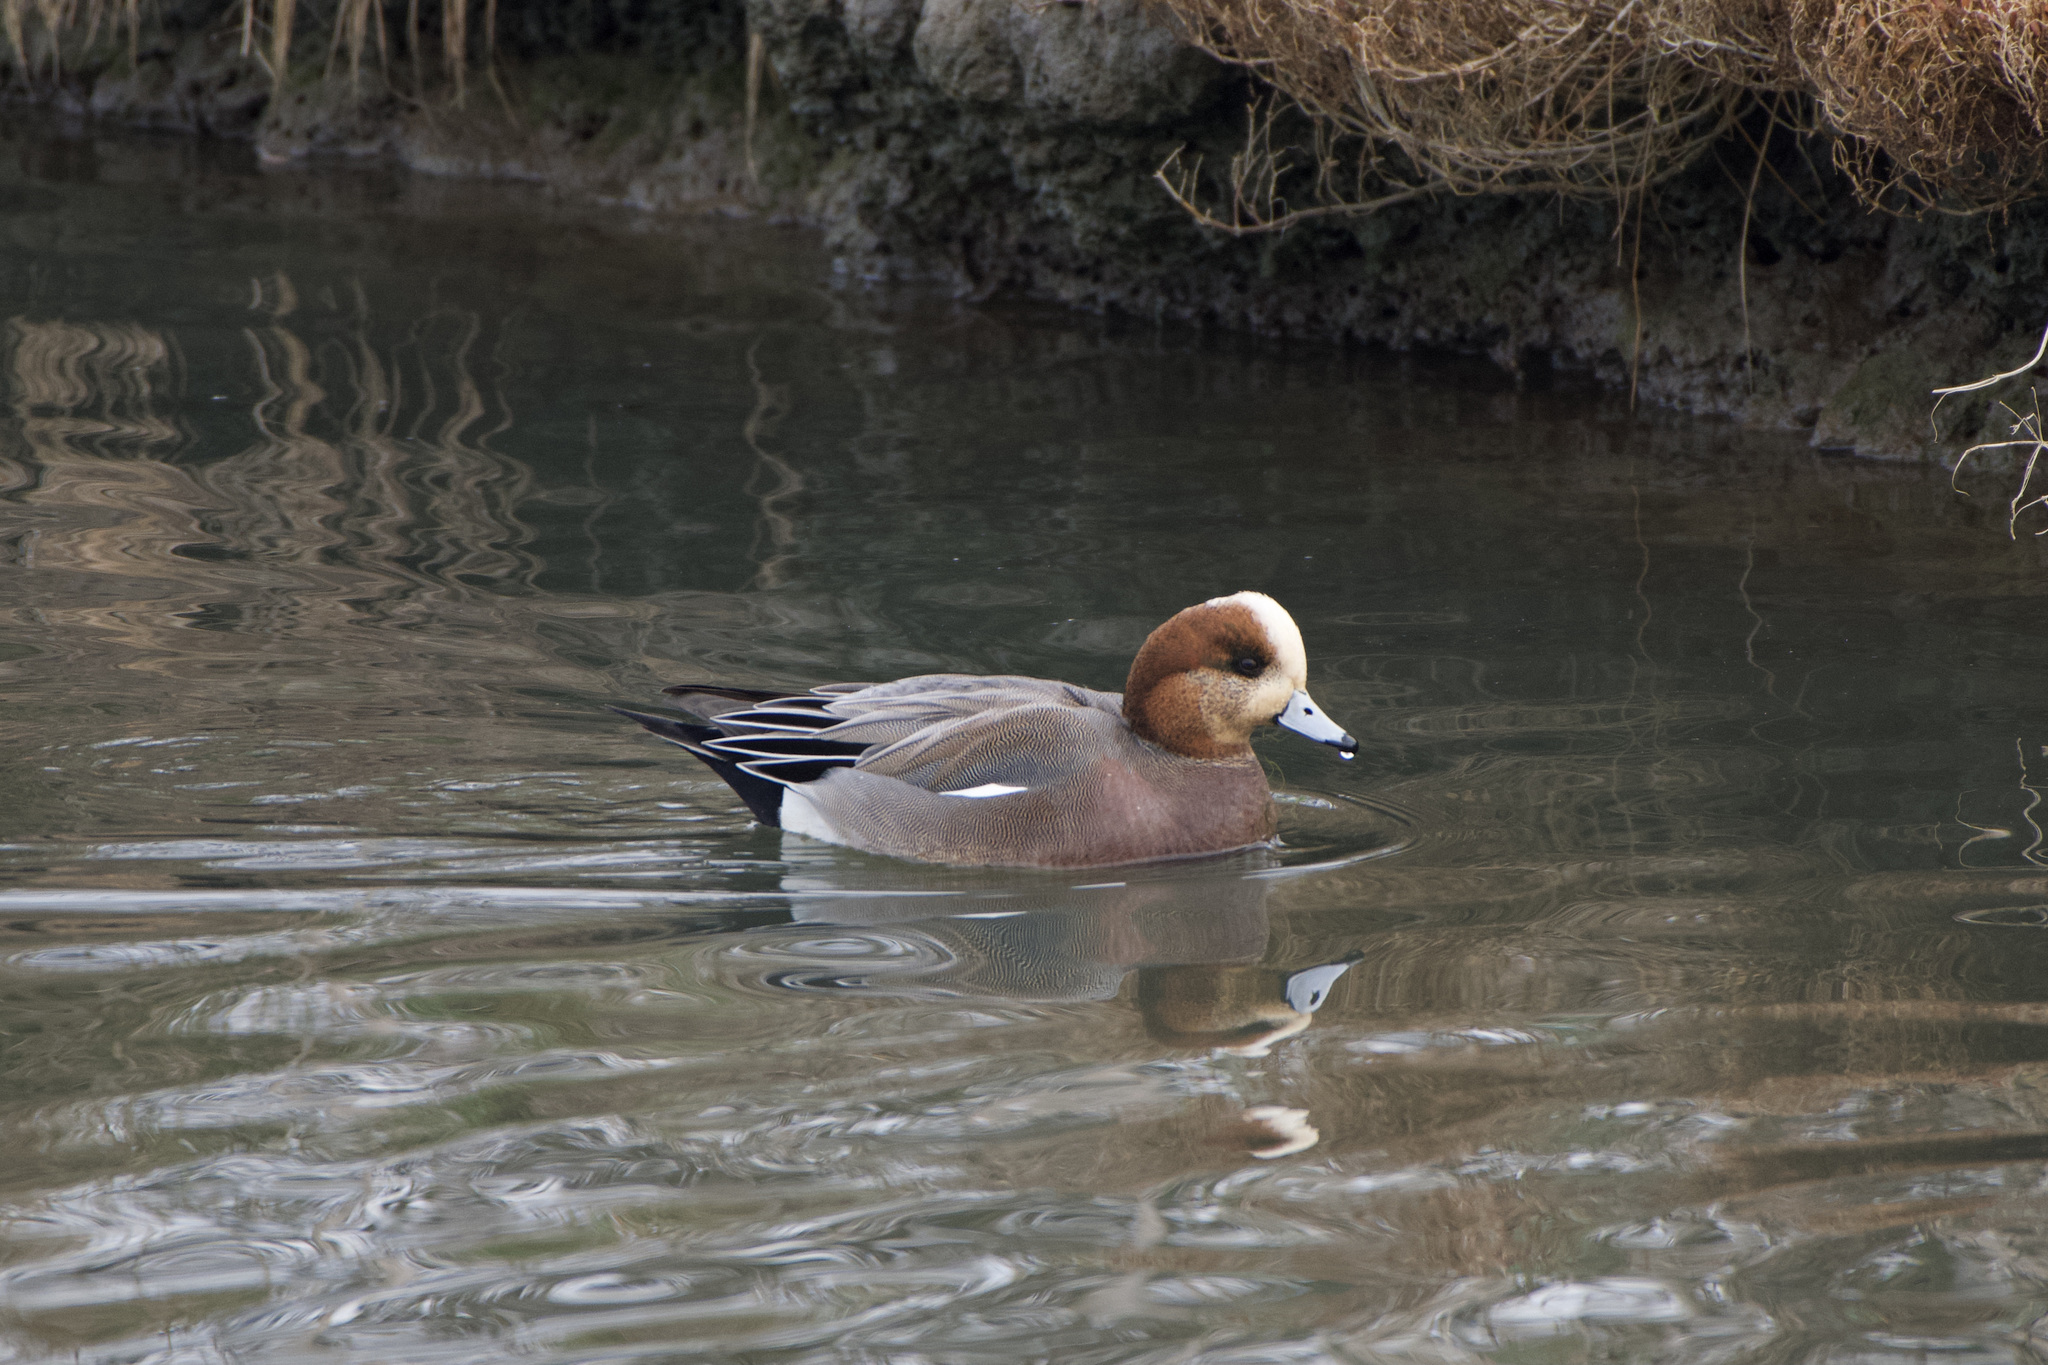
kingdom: Animalia
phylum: Chordata
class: Aves
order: Anseriformes
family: Anatidae
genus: Mareca
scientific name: Mareca
